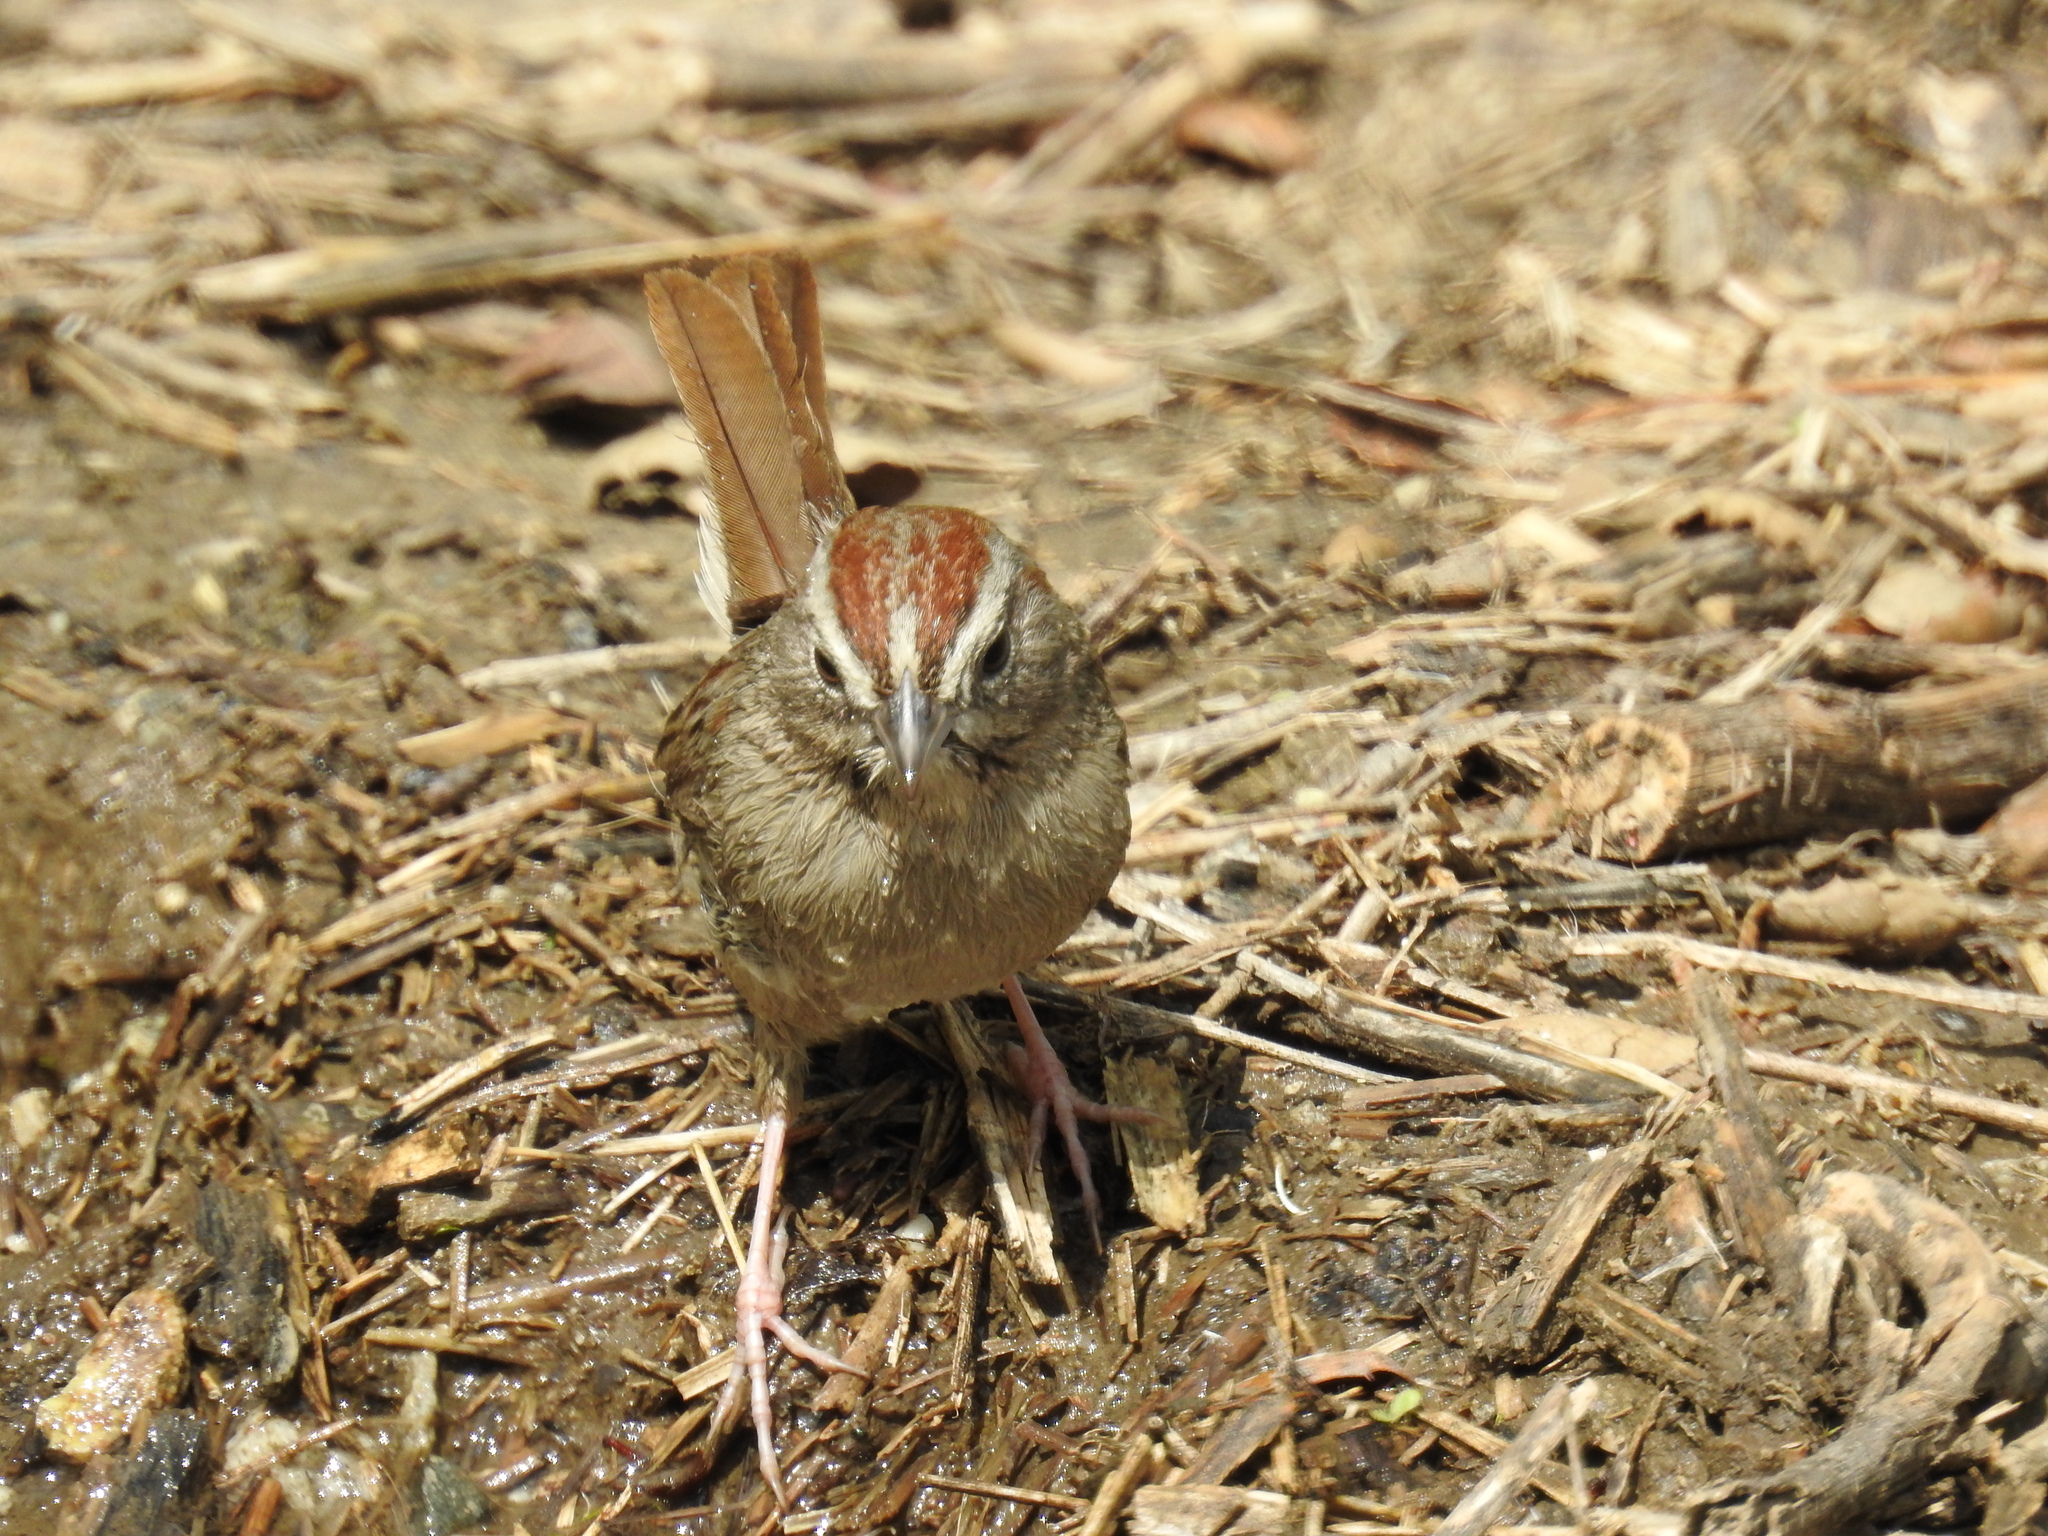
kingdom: Animalia
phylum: Chordata
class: Aves
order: Passeriformes
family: Passerellidae
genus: Aimophila
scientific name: Aimophila ruficeps
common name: Rufous-crowned sparrow
